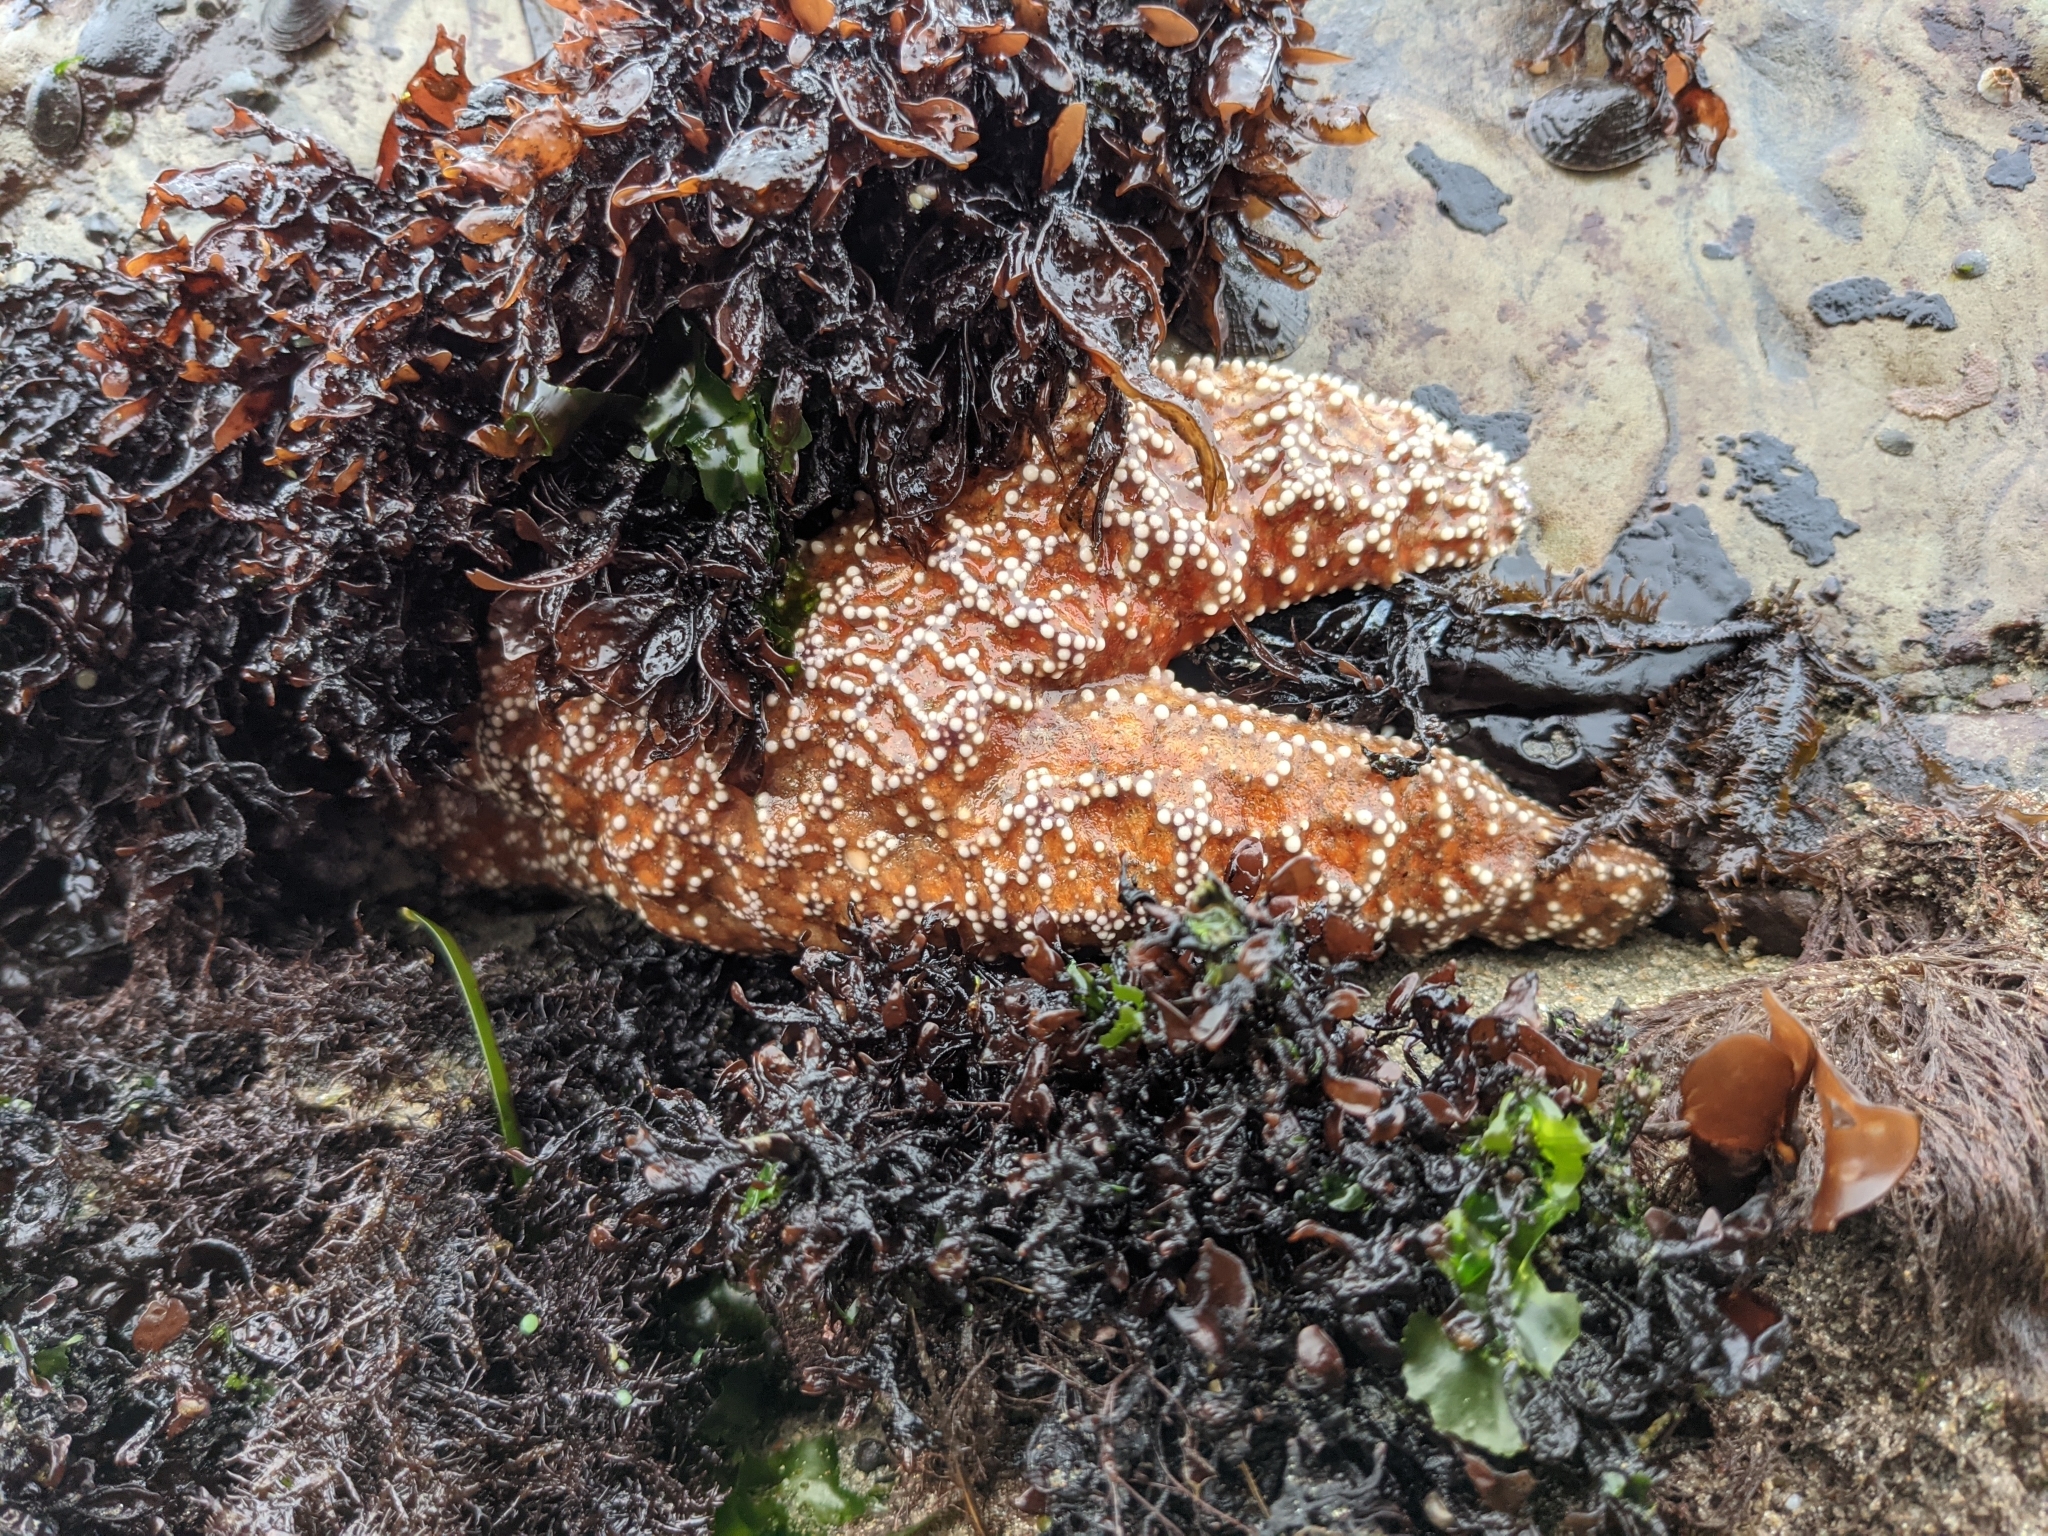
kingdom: Animalia
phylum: Echinodermata
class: Asteroidea
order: Forcipulatida
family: Asteriidae
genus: Pisaster
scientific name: Pisaster ochraceus
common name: Ochre stars
